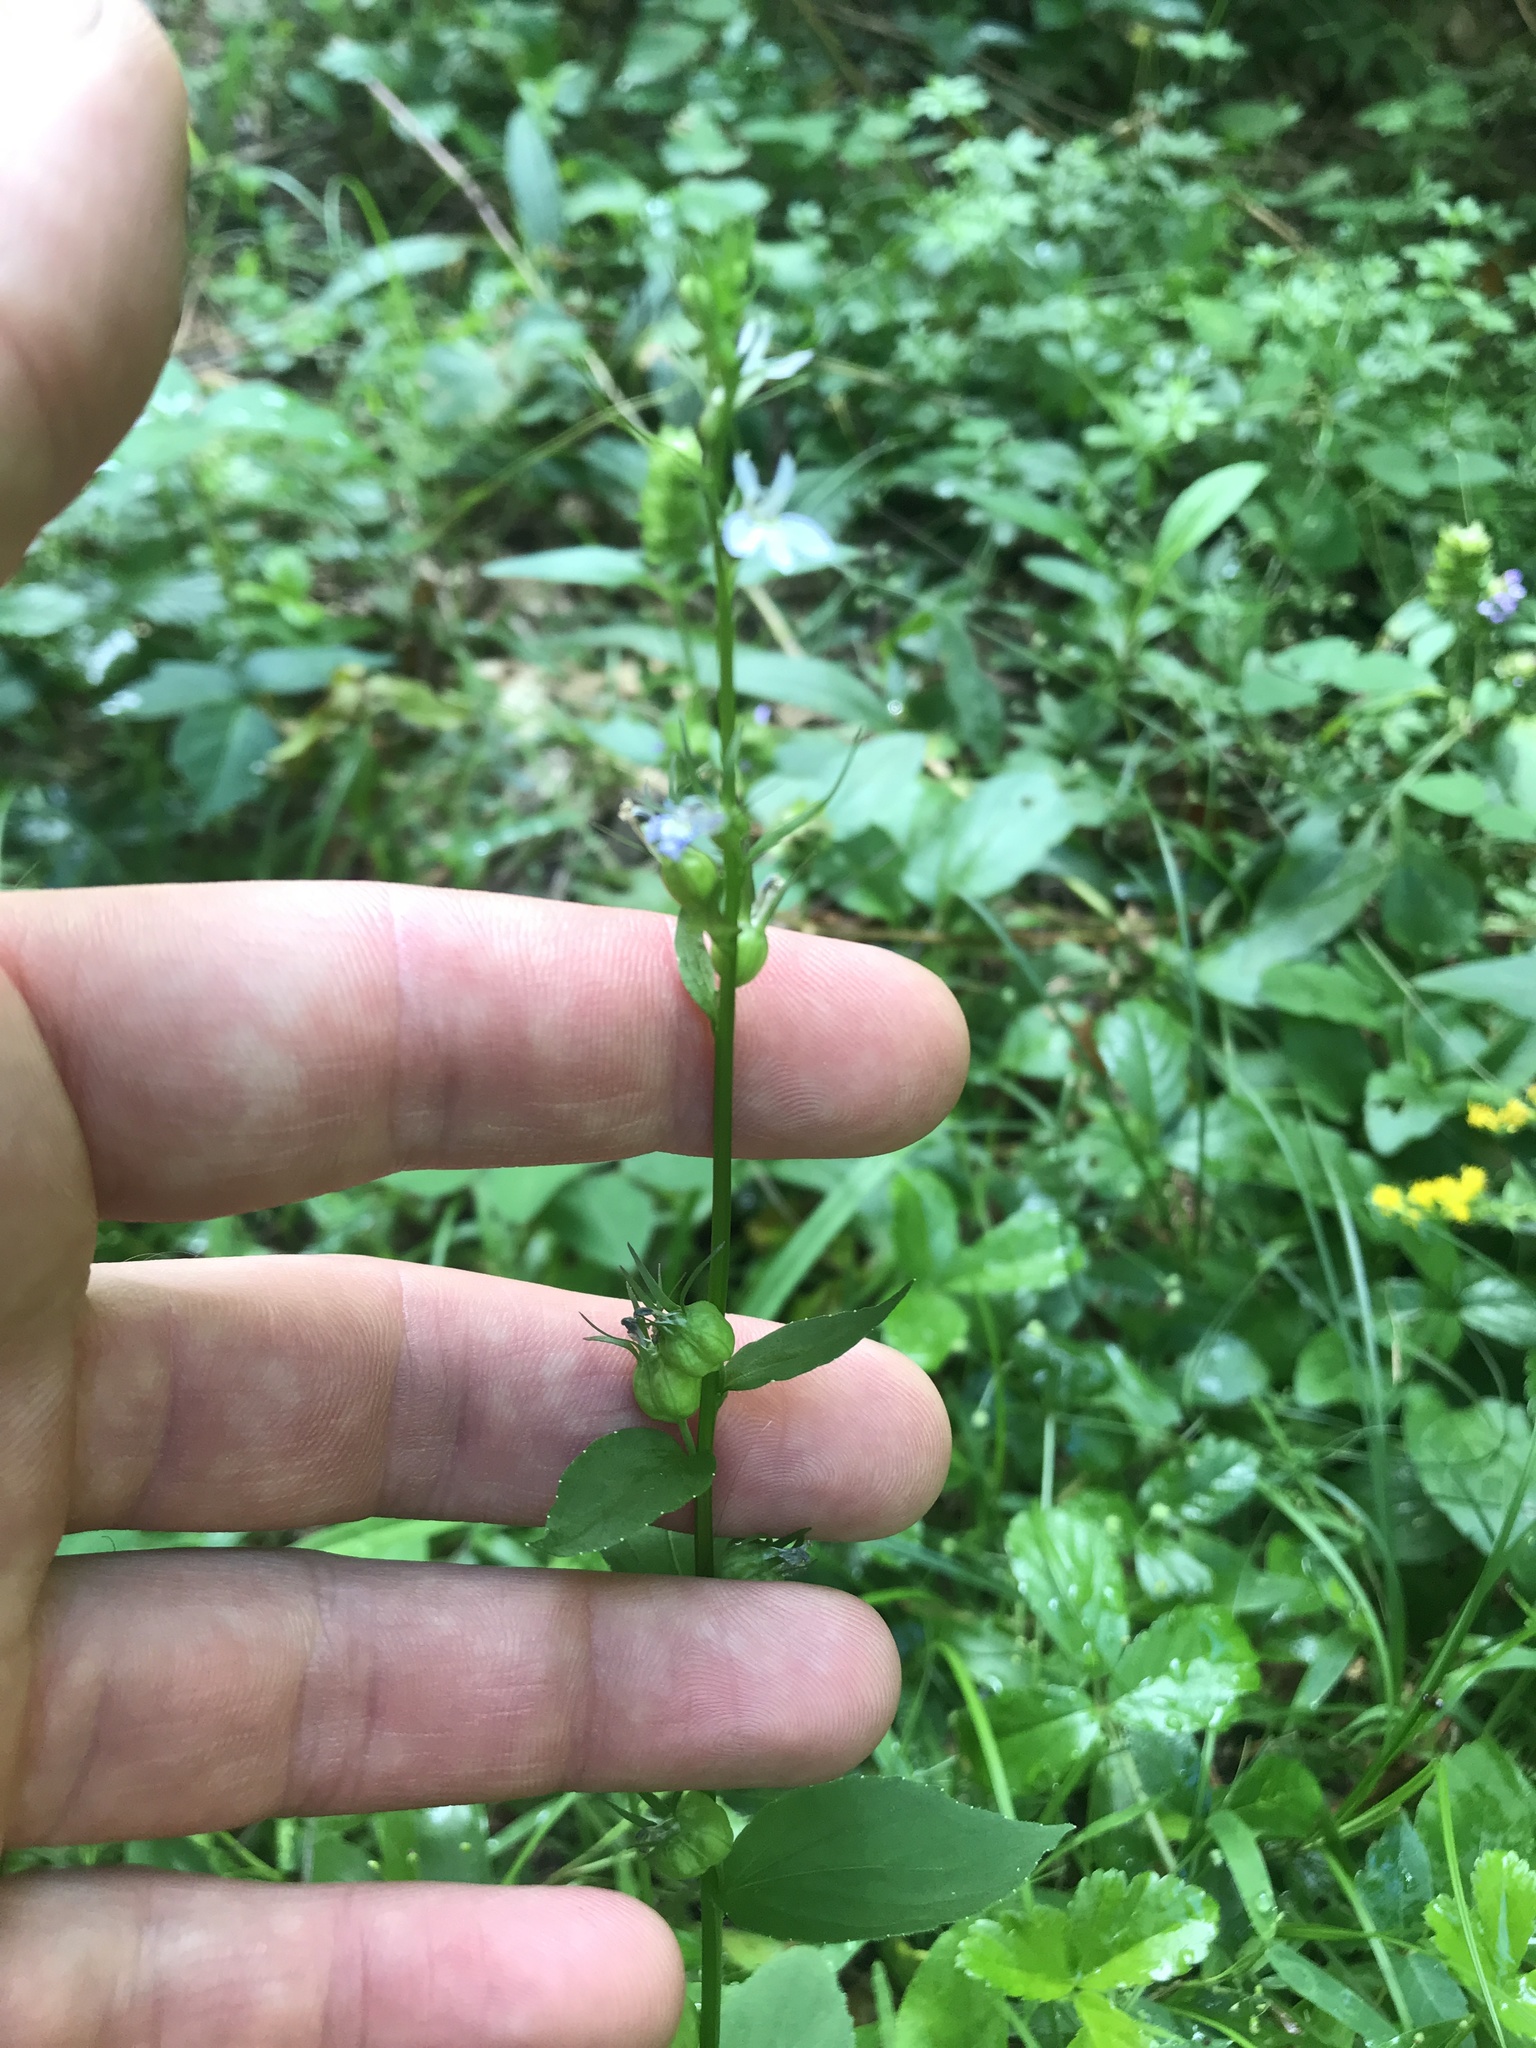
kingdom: Plantae
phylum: Tracheophyta
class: Magnoliopsida
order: Asterales
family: Campanulaceae
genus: Lobelia
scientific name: Lobelia inflata
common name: Indian tobacco
